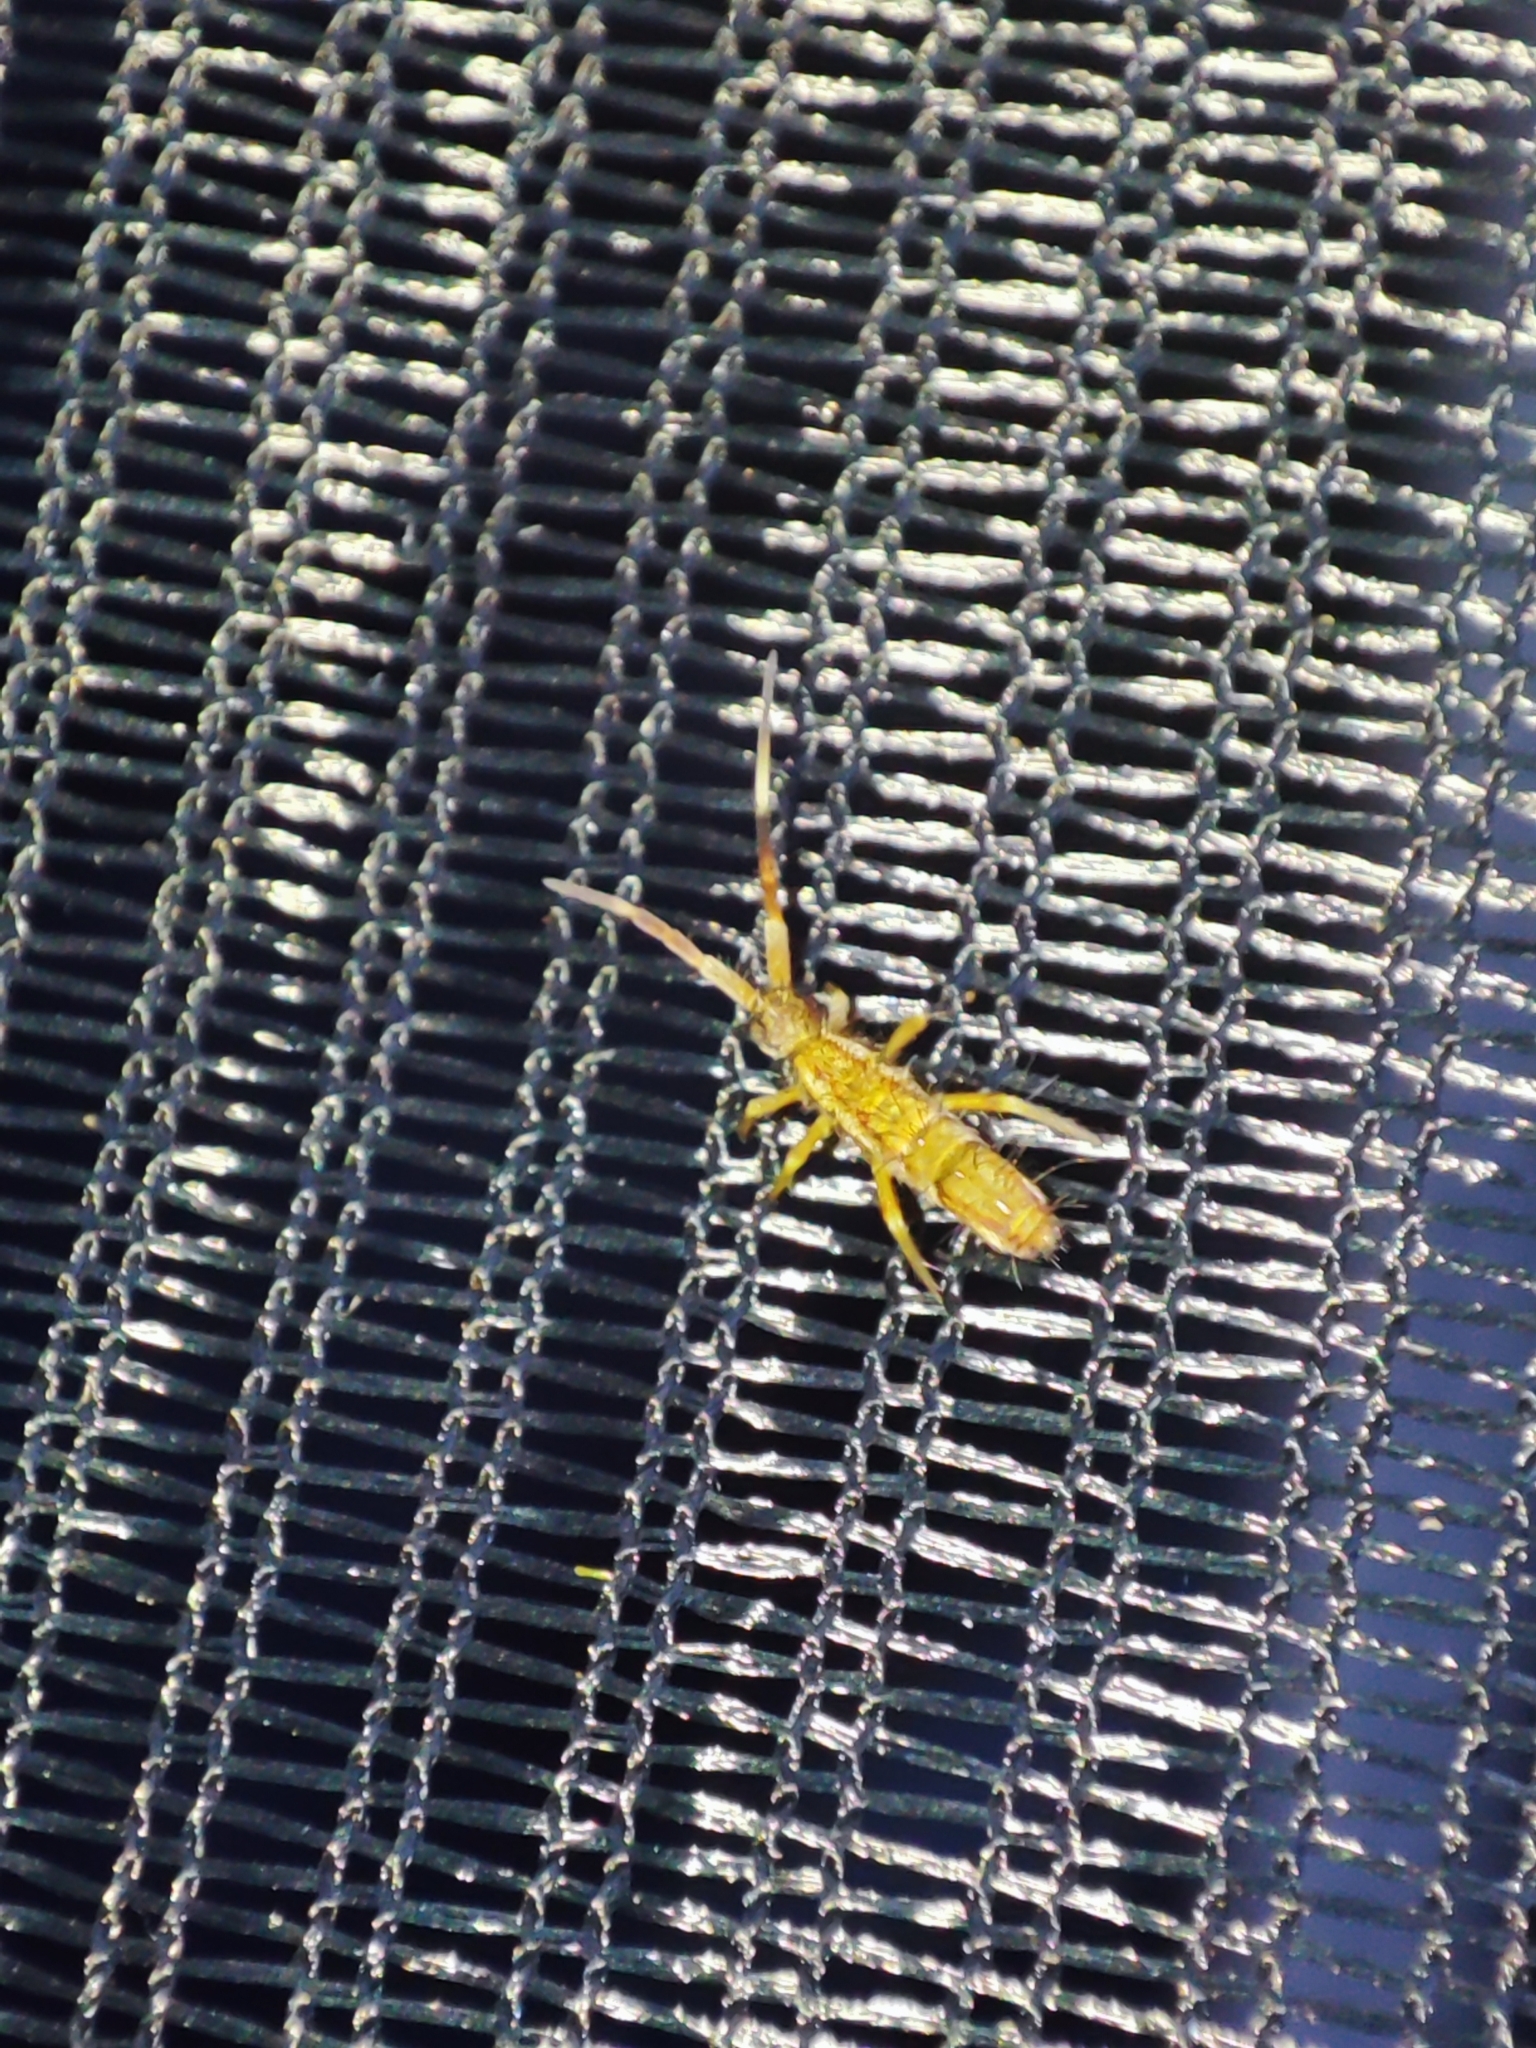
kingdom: Animalia
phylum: Arthropoda
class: Collembola
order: Entomobryomorpha
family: Entomobryidae
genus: Entomobrya
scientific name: Entomobrya nivalis
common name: Cosmopolitan springtail
